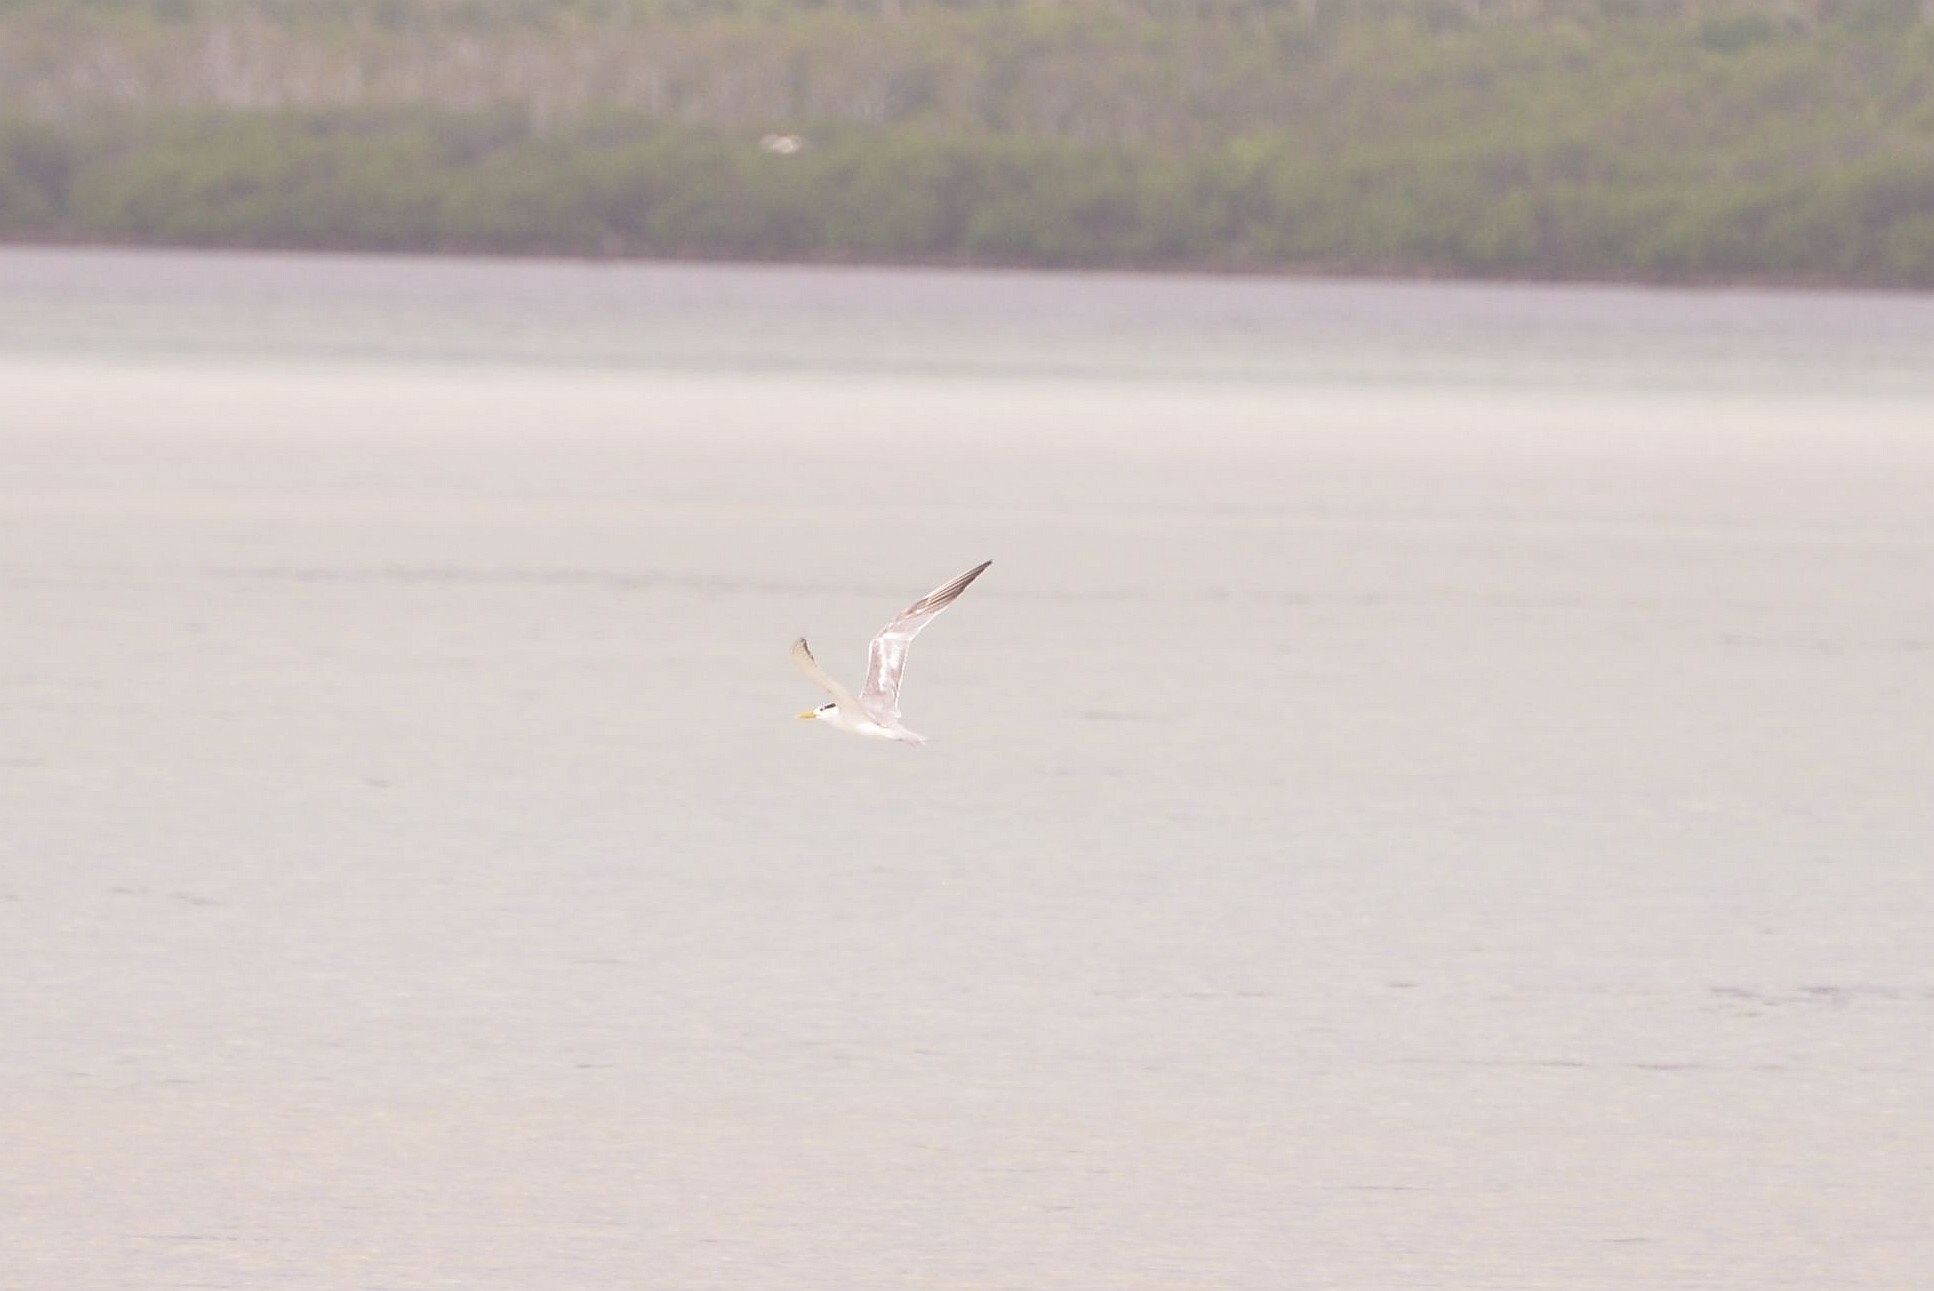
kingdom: Animalia
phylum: Chordata
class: Aves
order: Charadriiformes
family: Laridae
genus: Thalasseus
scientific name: Thalasseus bergii
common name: Greater crested tern
